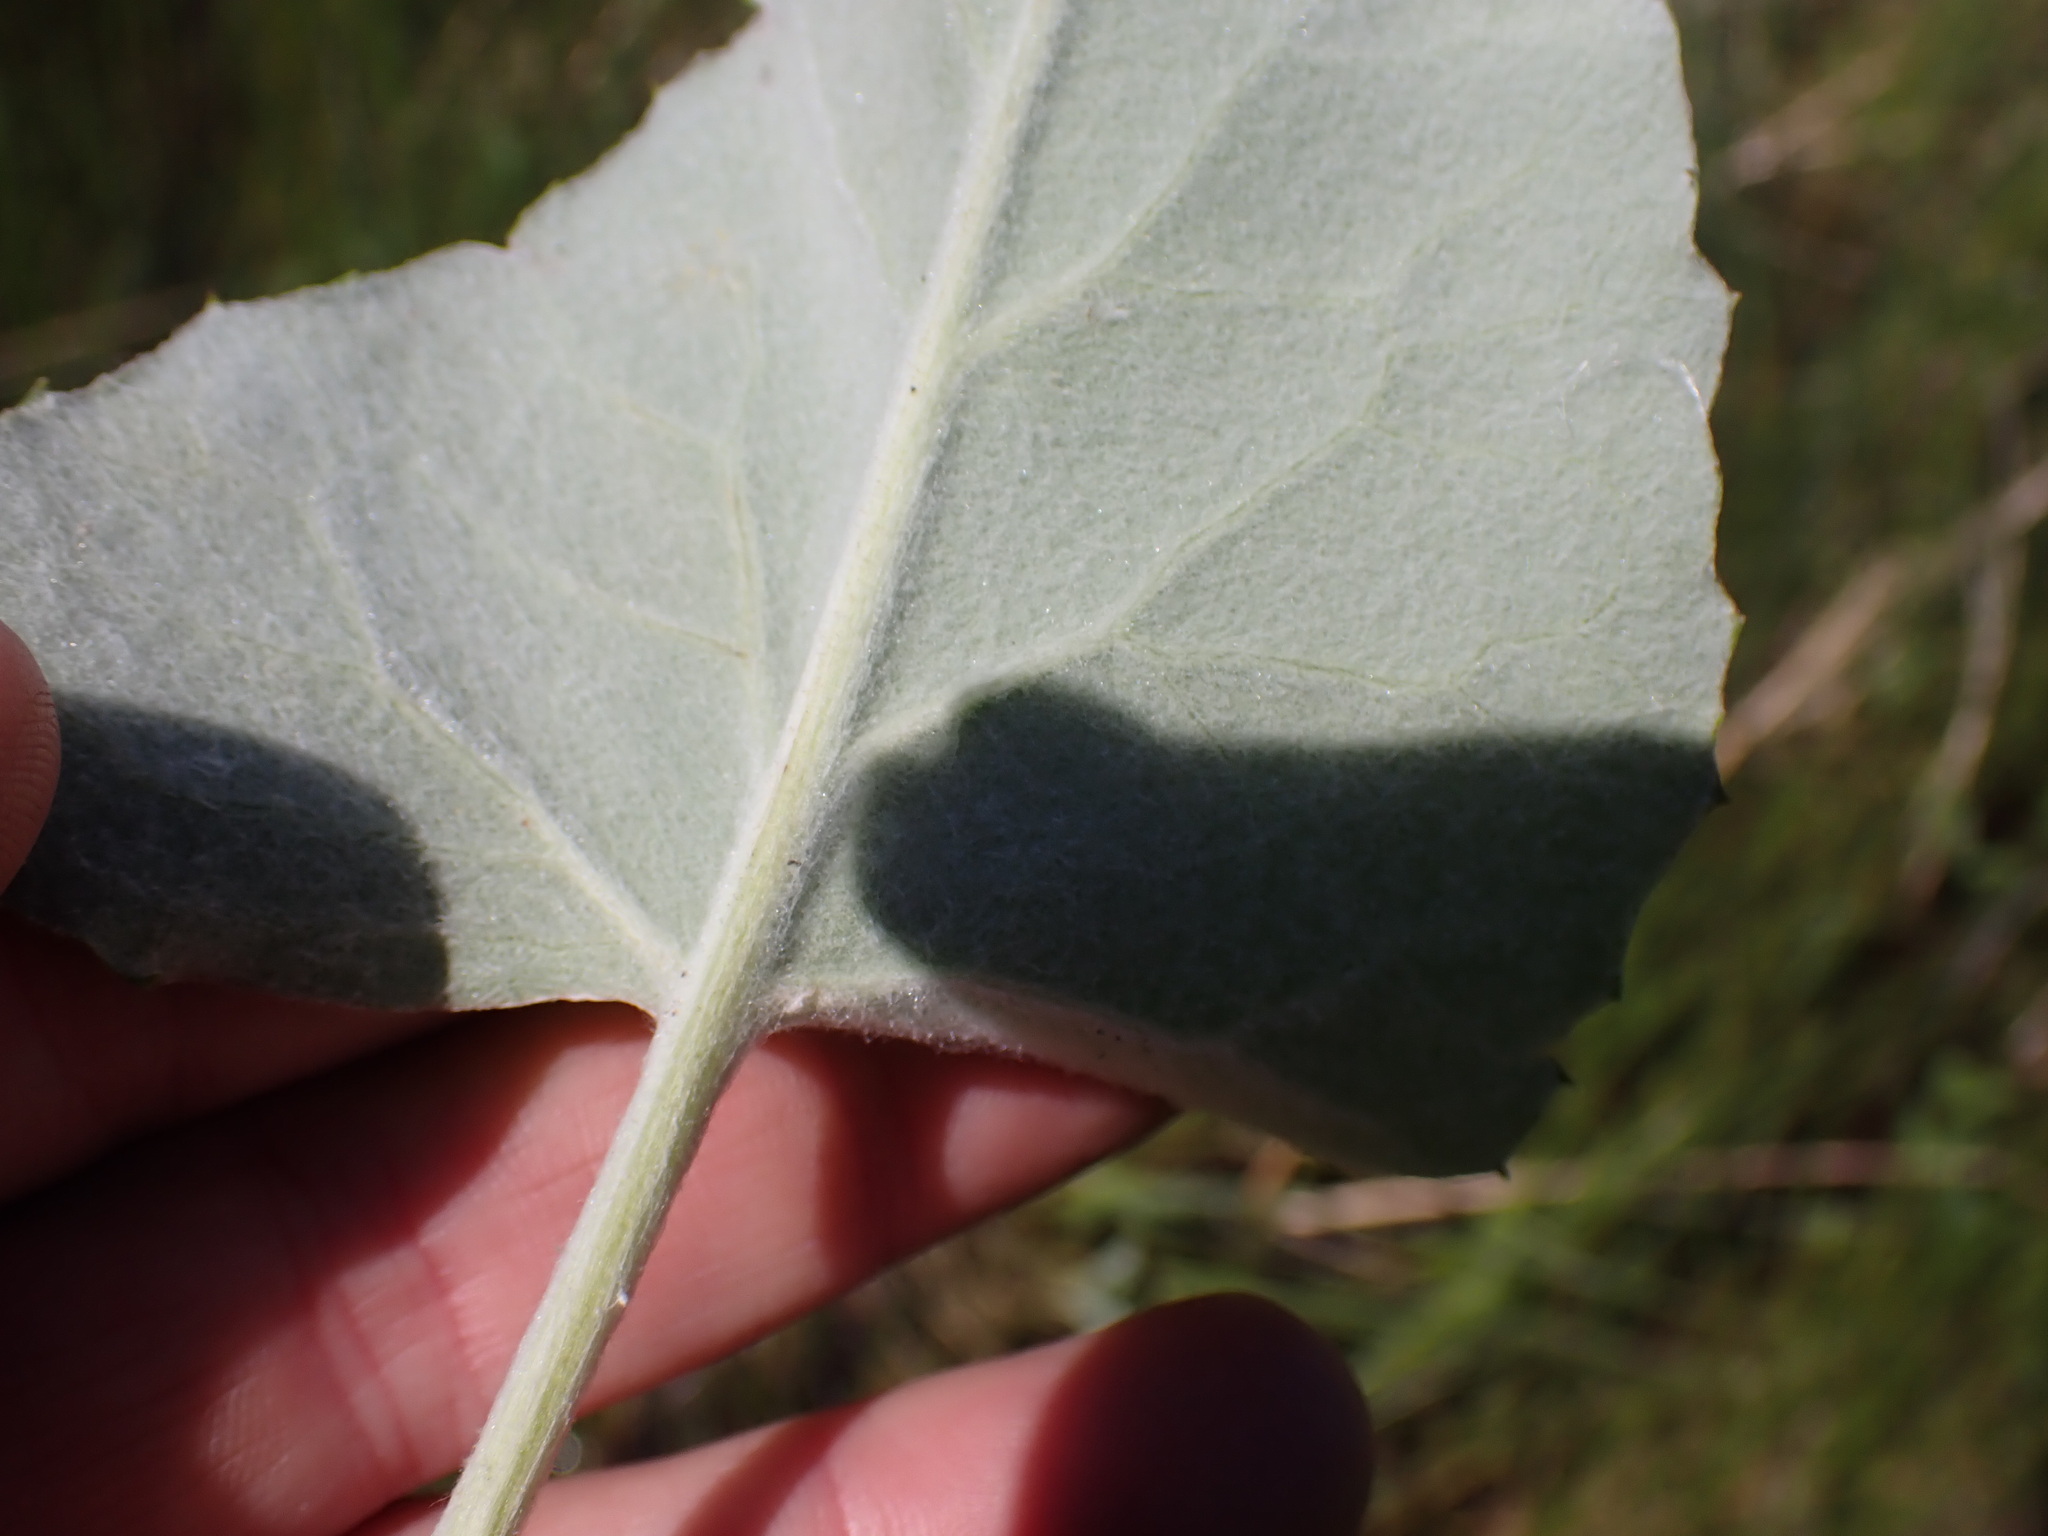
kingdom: Plantae
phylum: Tracheophyta
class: Magnoliopsida
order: Asterales
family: Asteraceae
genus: Petasites
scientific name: Petasites frigidus
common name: Arctic butterbur
